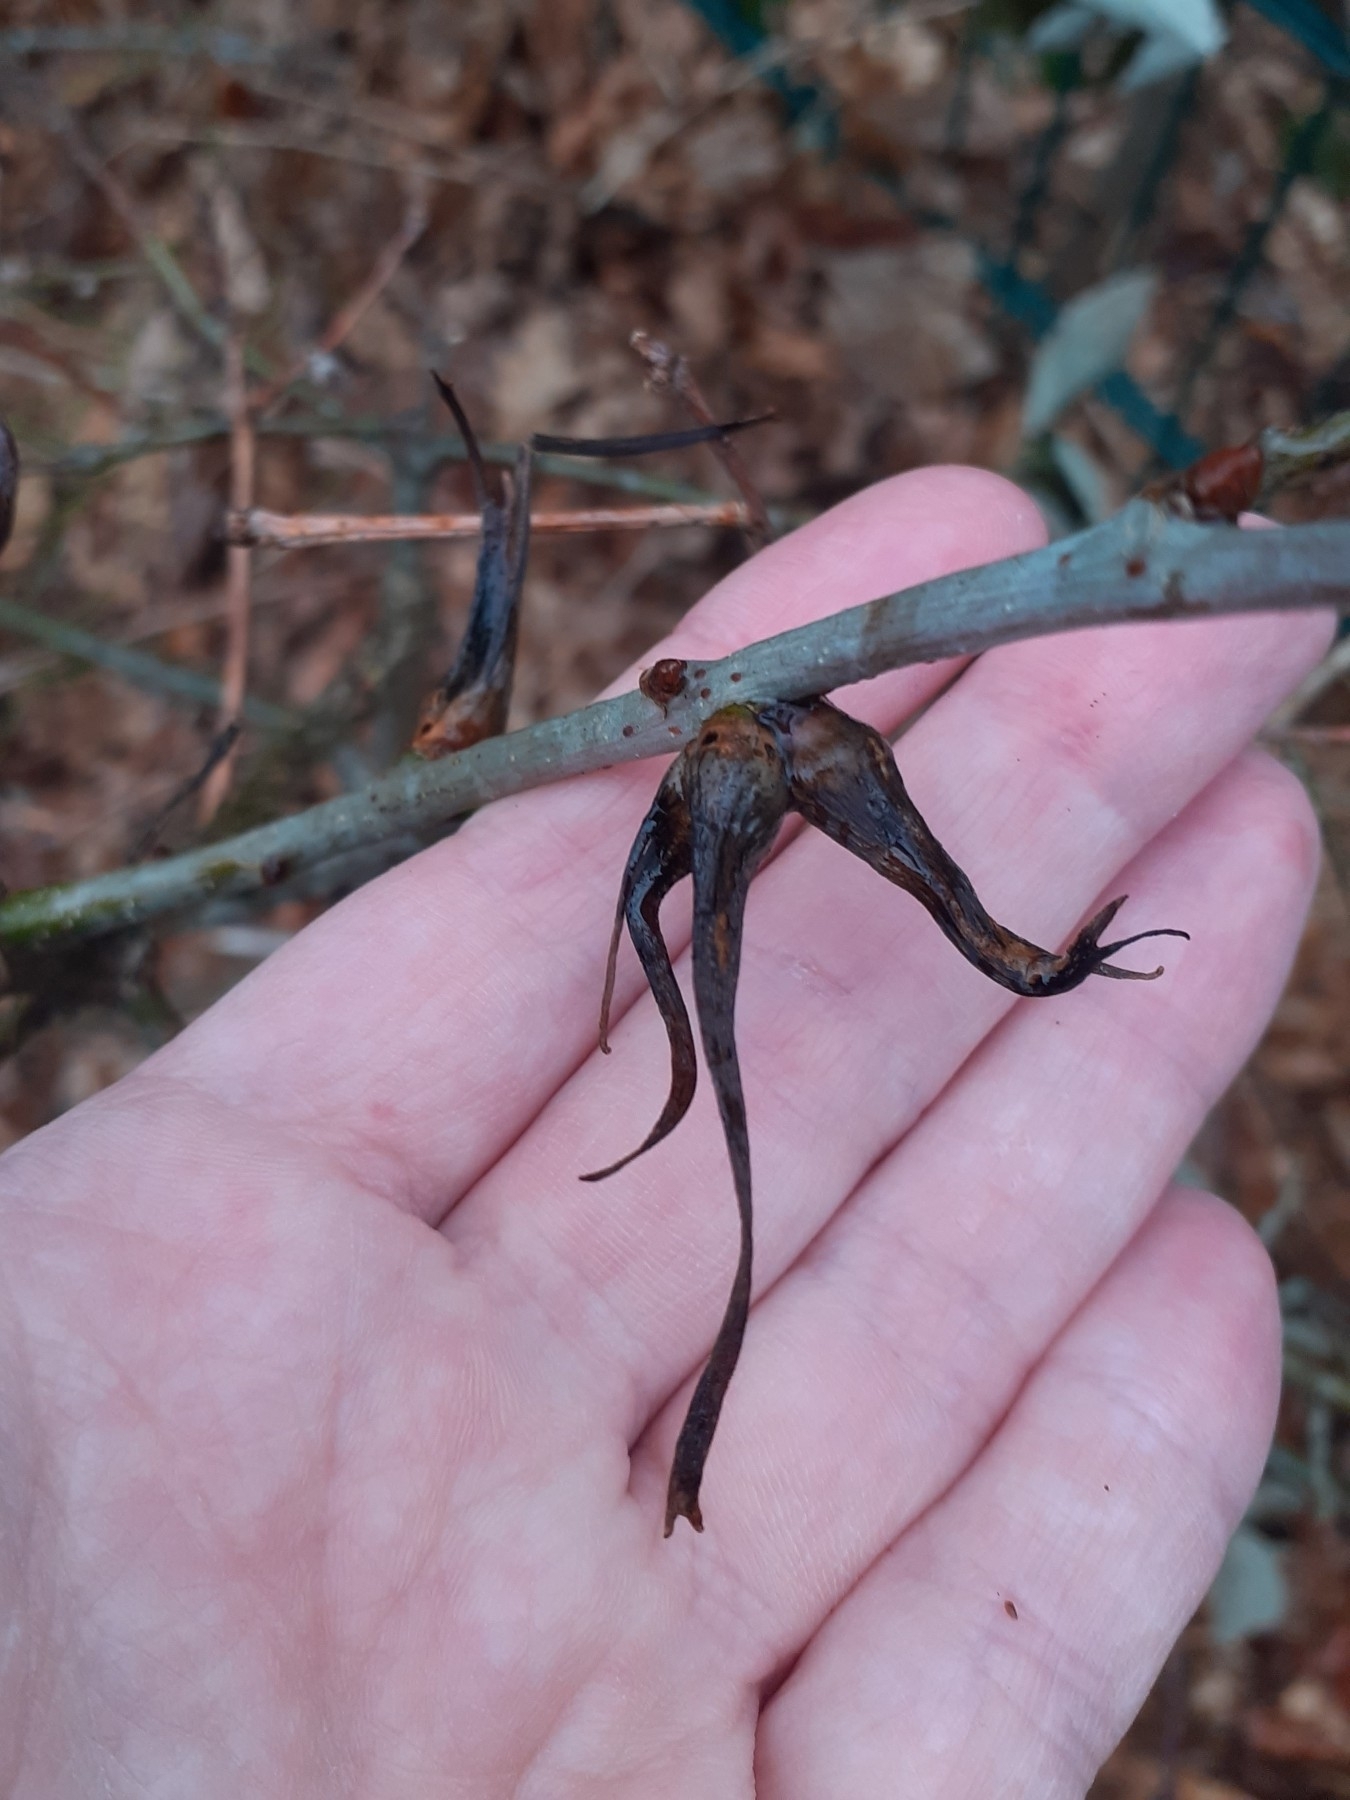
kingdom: Animalia
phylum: Arthropoda
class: Insecta
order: Hymenoptera
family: Cynipidae
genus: Andricus
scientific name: Andricus aries
